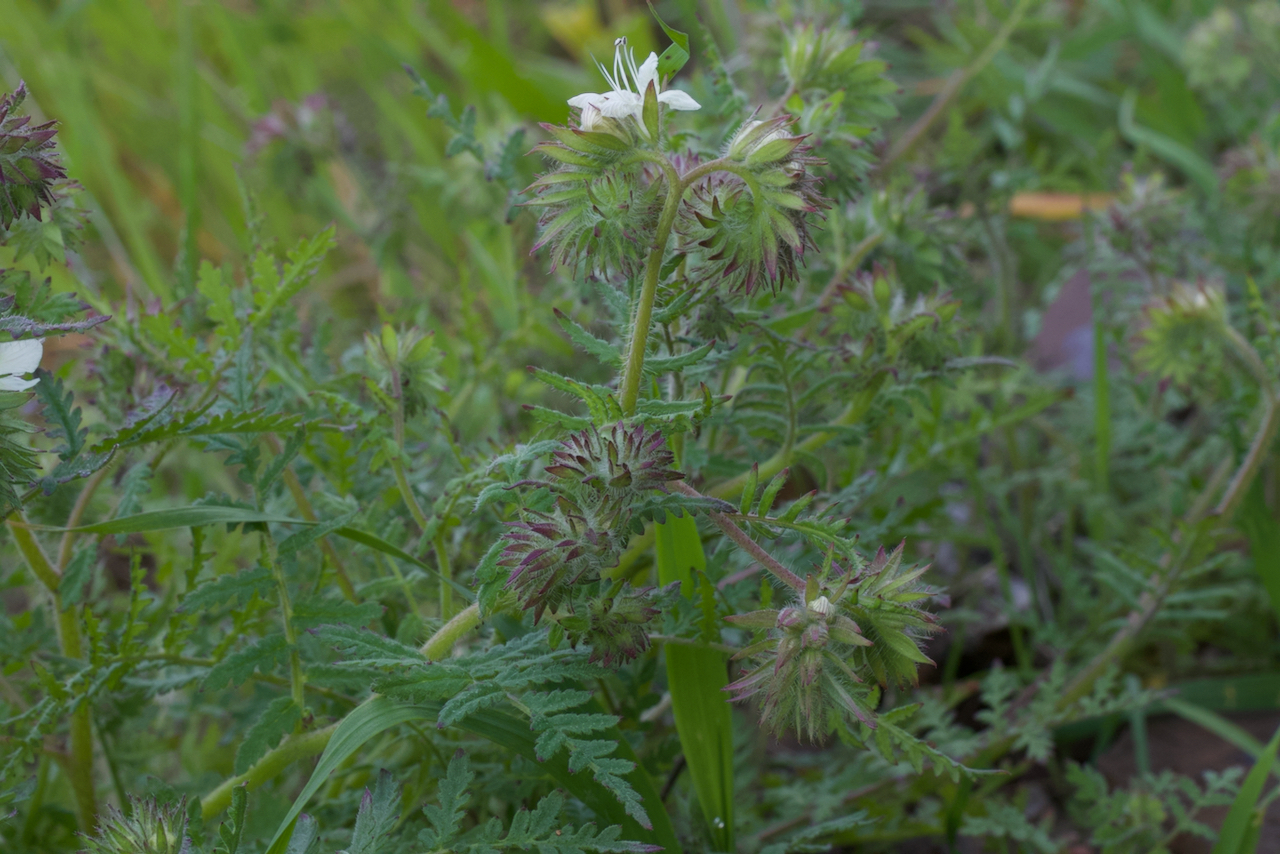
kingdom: Plantae
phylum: Tracheophyta
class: Magnoliopsida
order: Boraginales
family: Hydrophyllaceae
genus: Phacelia
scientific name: Phacelia distans
